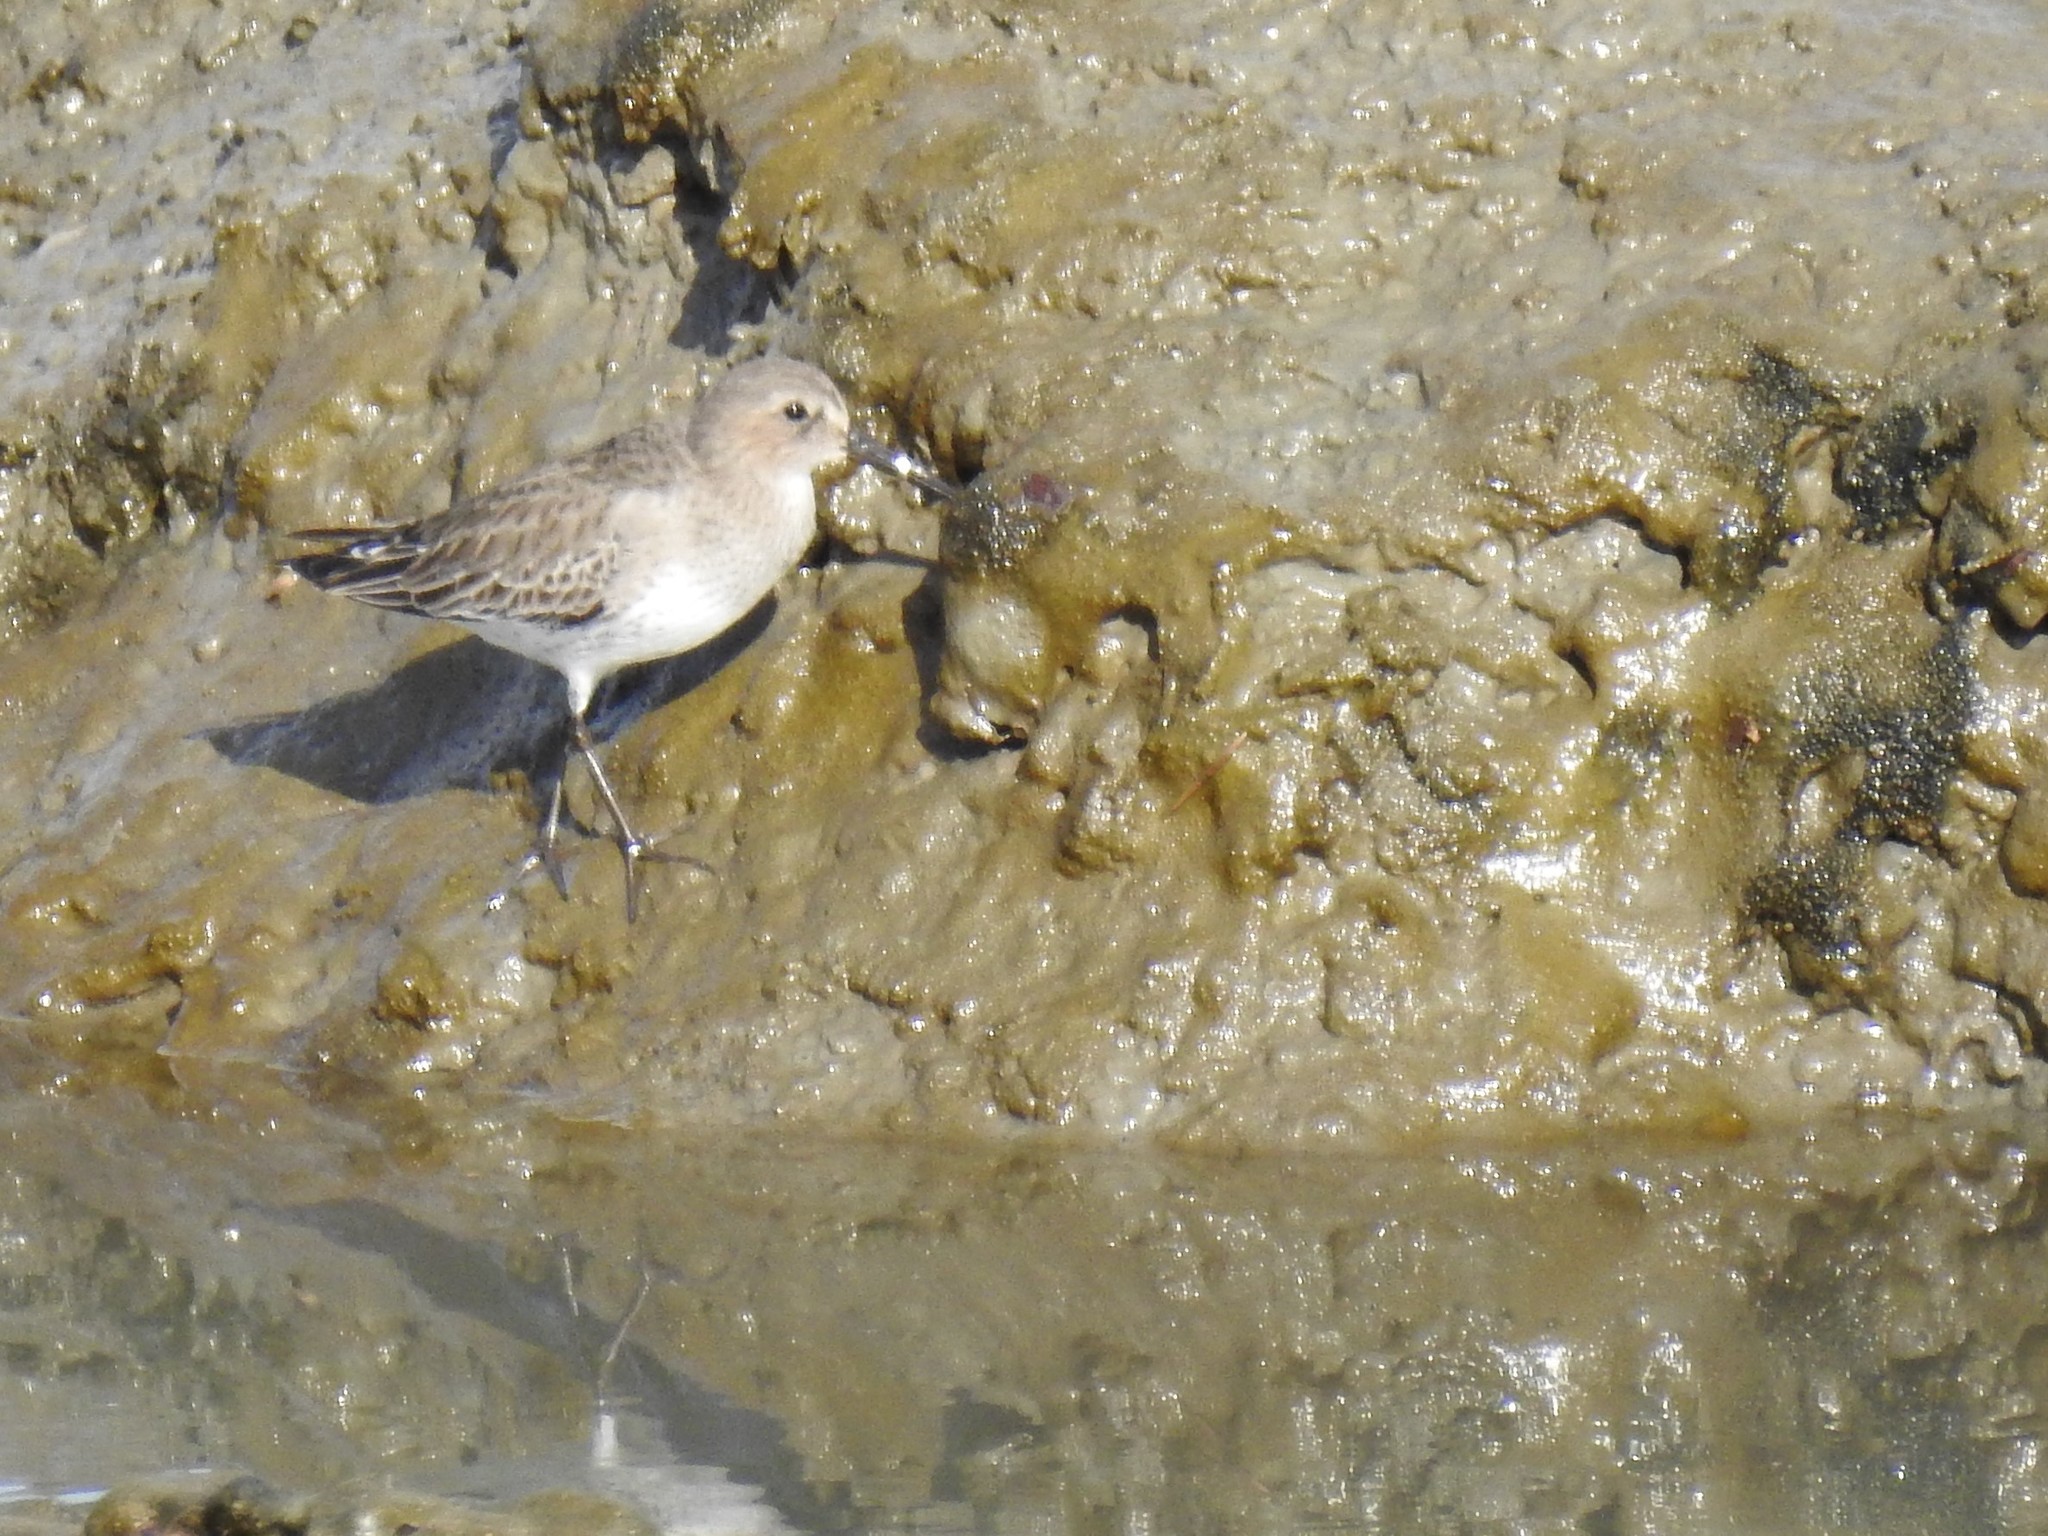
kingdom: Animalia
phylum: Chordata
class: Aves
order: Charadriiformes
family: Scolopacidae
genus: Calidris
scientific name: Calidris alpina
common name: Dunlin
